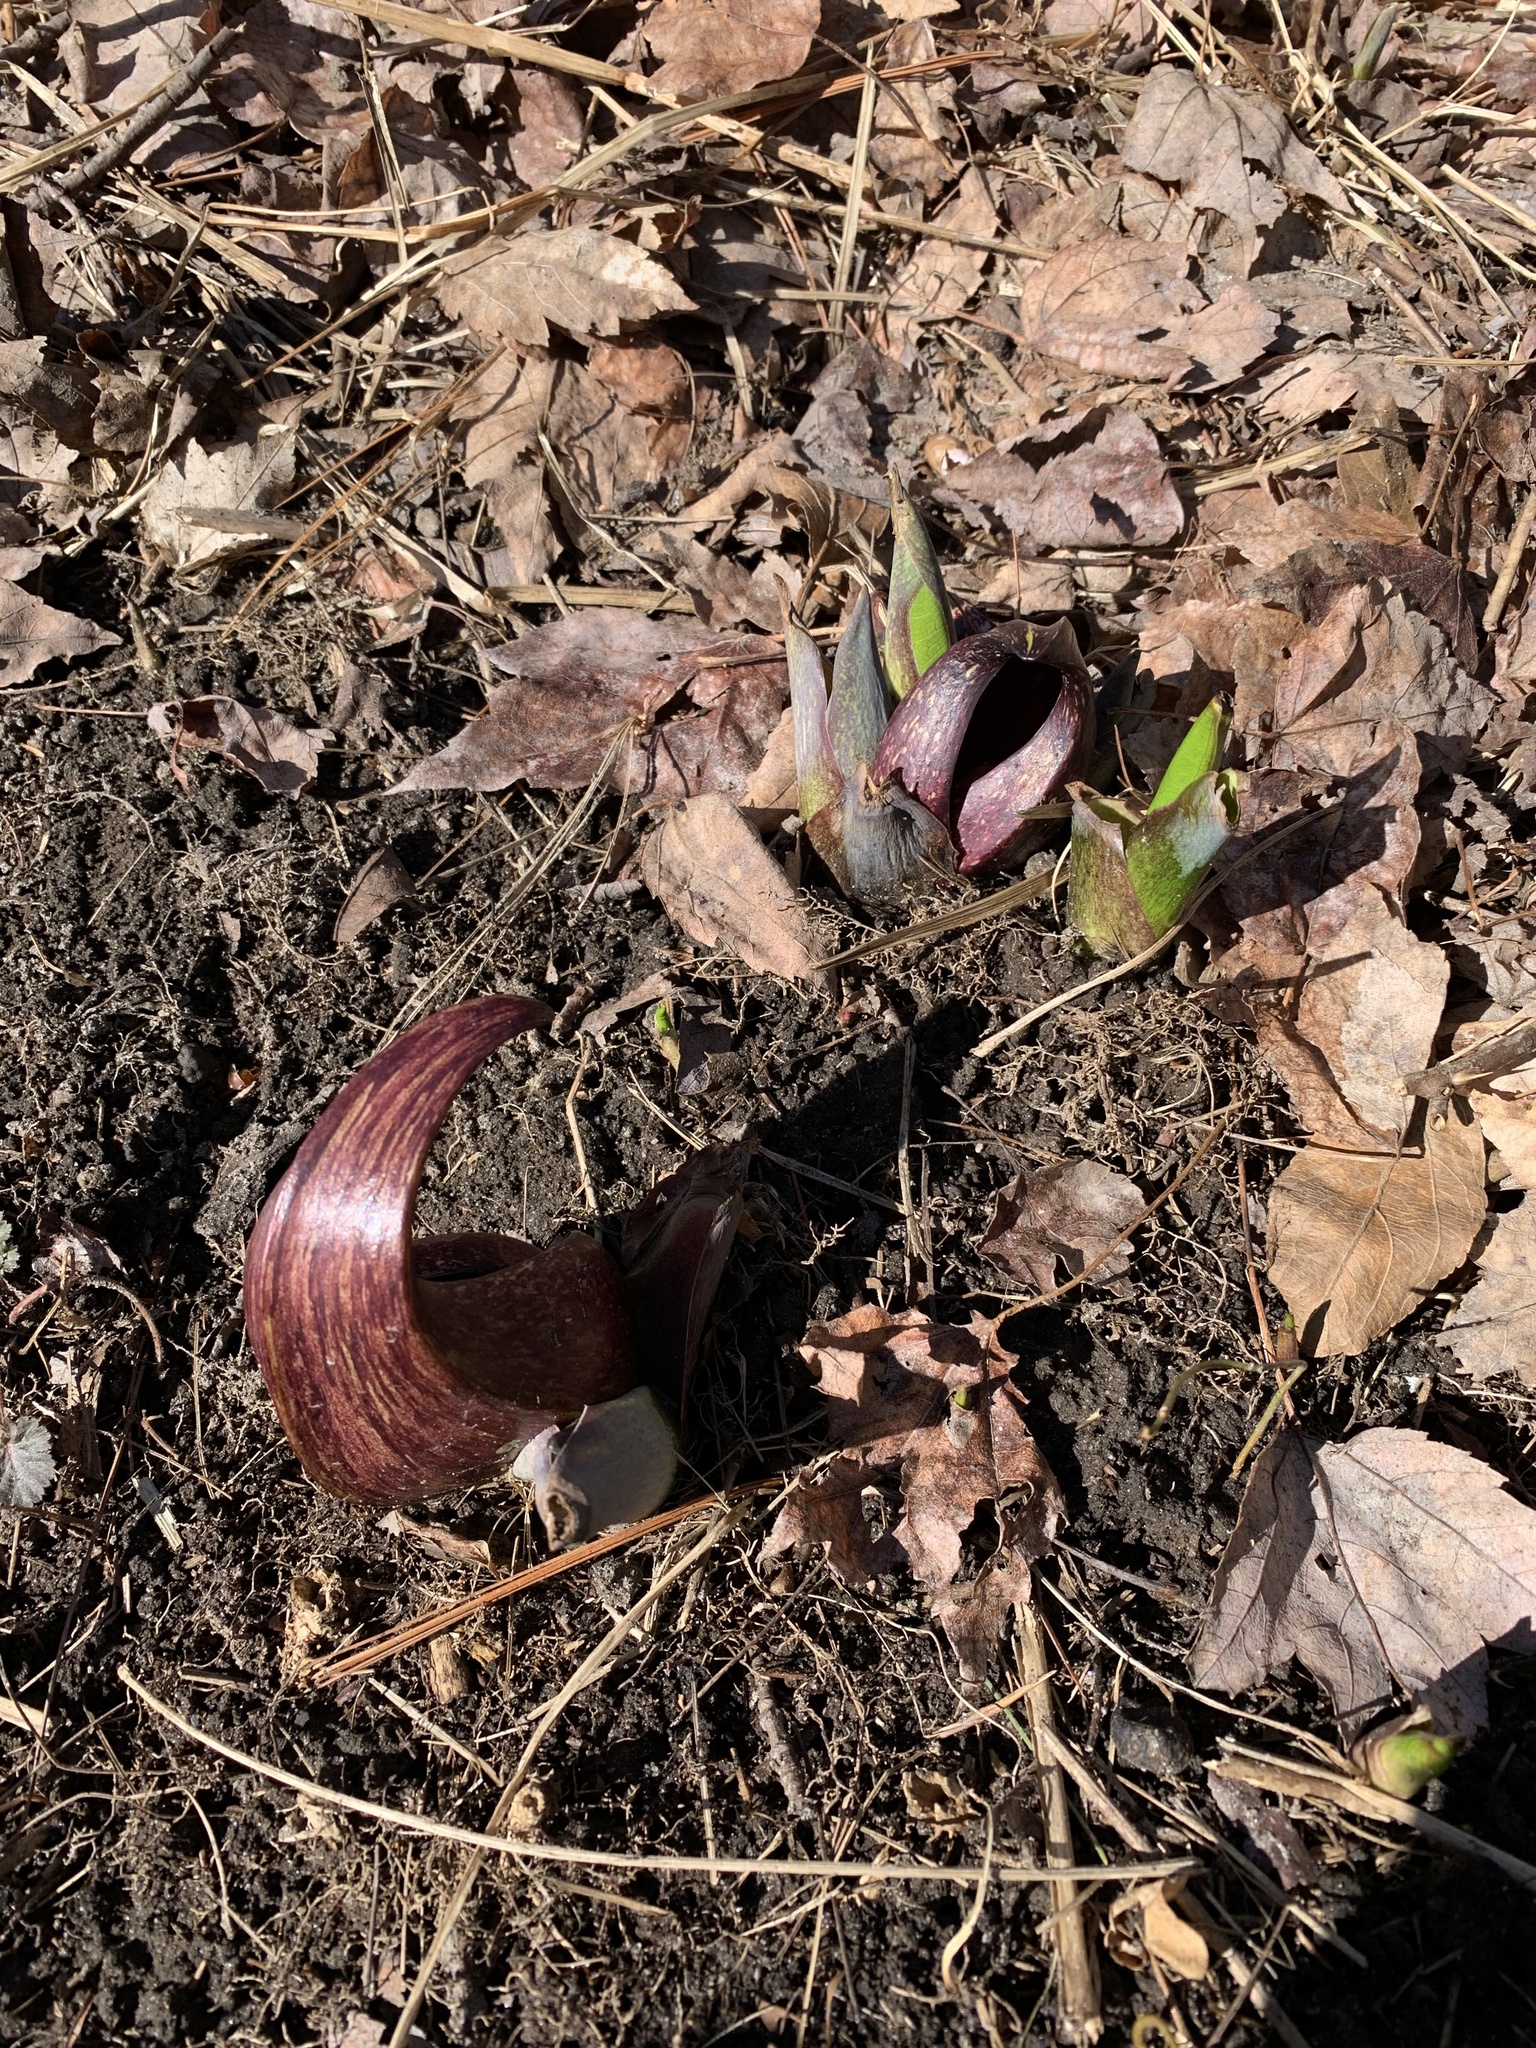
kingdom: Plantae
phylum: Tracheophyta
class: Liliopsida
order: Alismatales
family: Araceae
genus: Symplocarpus
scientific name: Symplocarpus foetidus
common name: Eastern skunk cabbage
